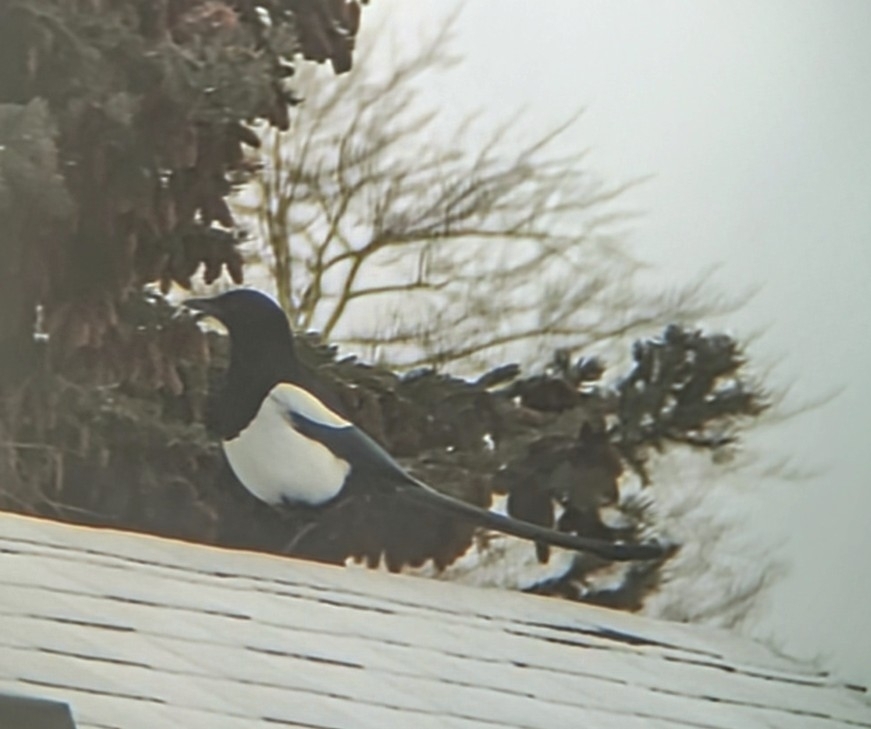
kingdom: Animalia
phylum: Chordata
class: Aves
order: Passeriformes
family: Corvidae
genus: Pica
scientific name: Pica hudsonia
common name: Black-billed magpie
